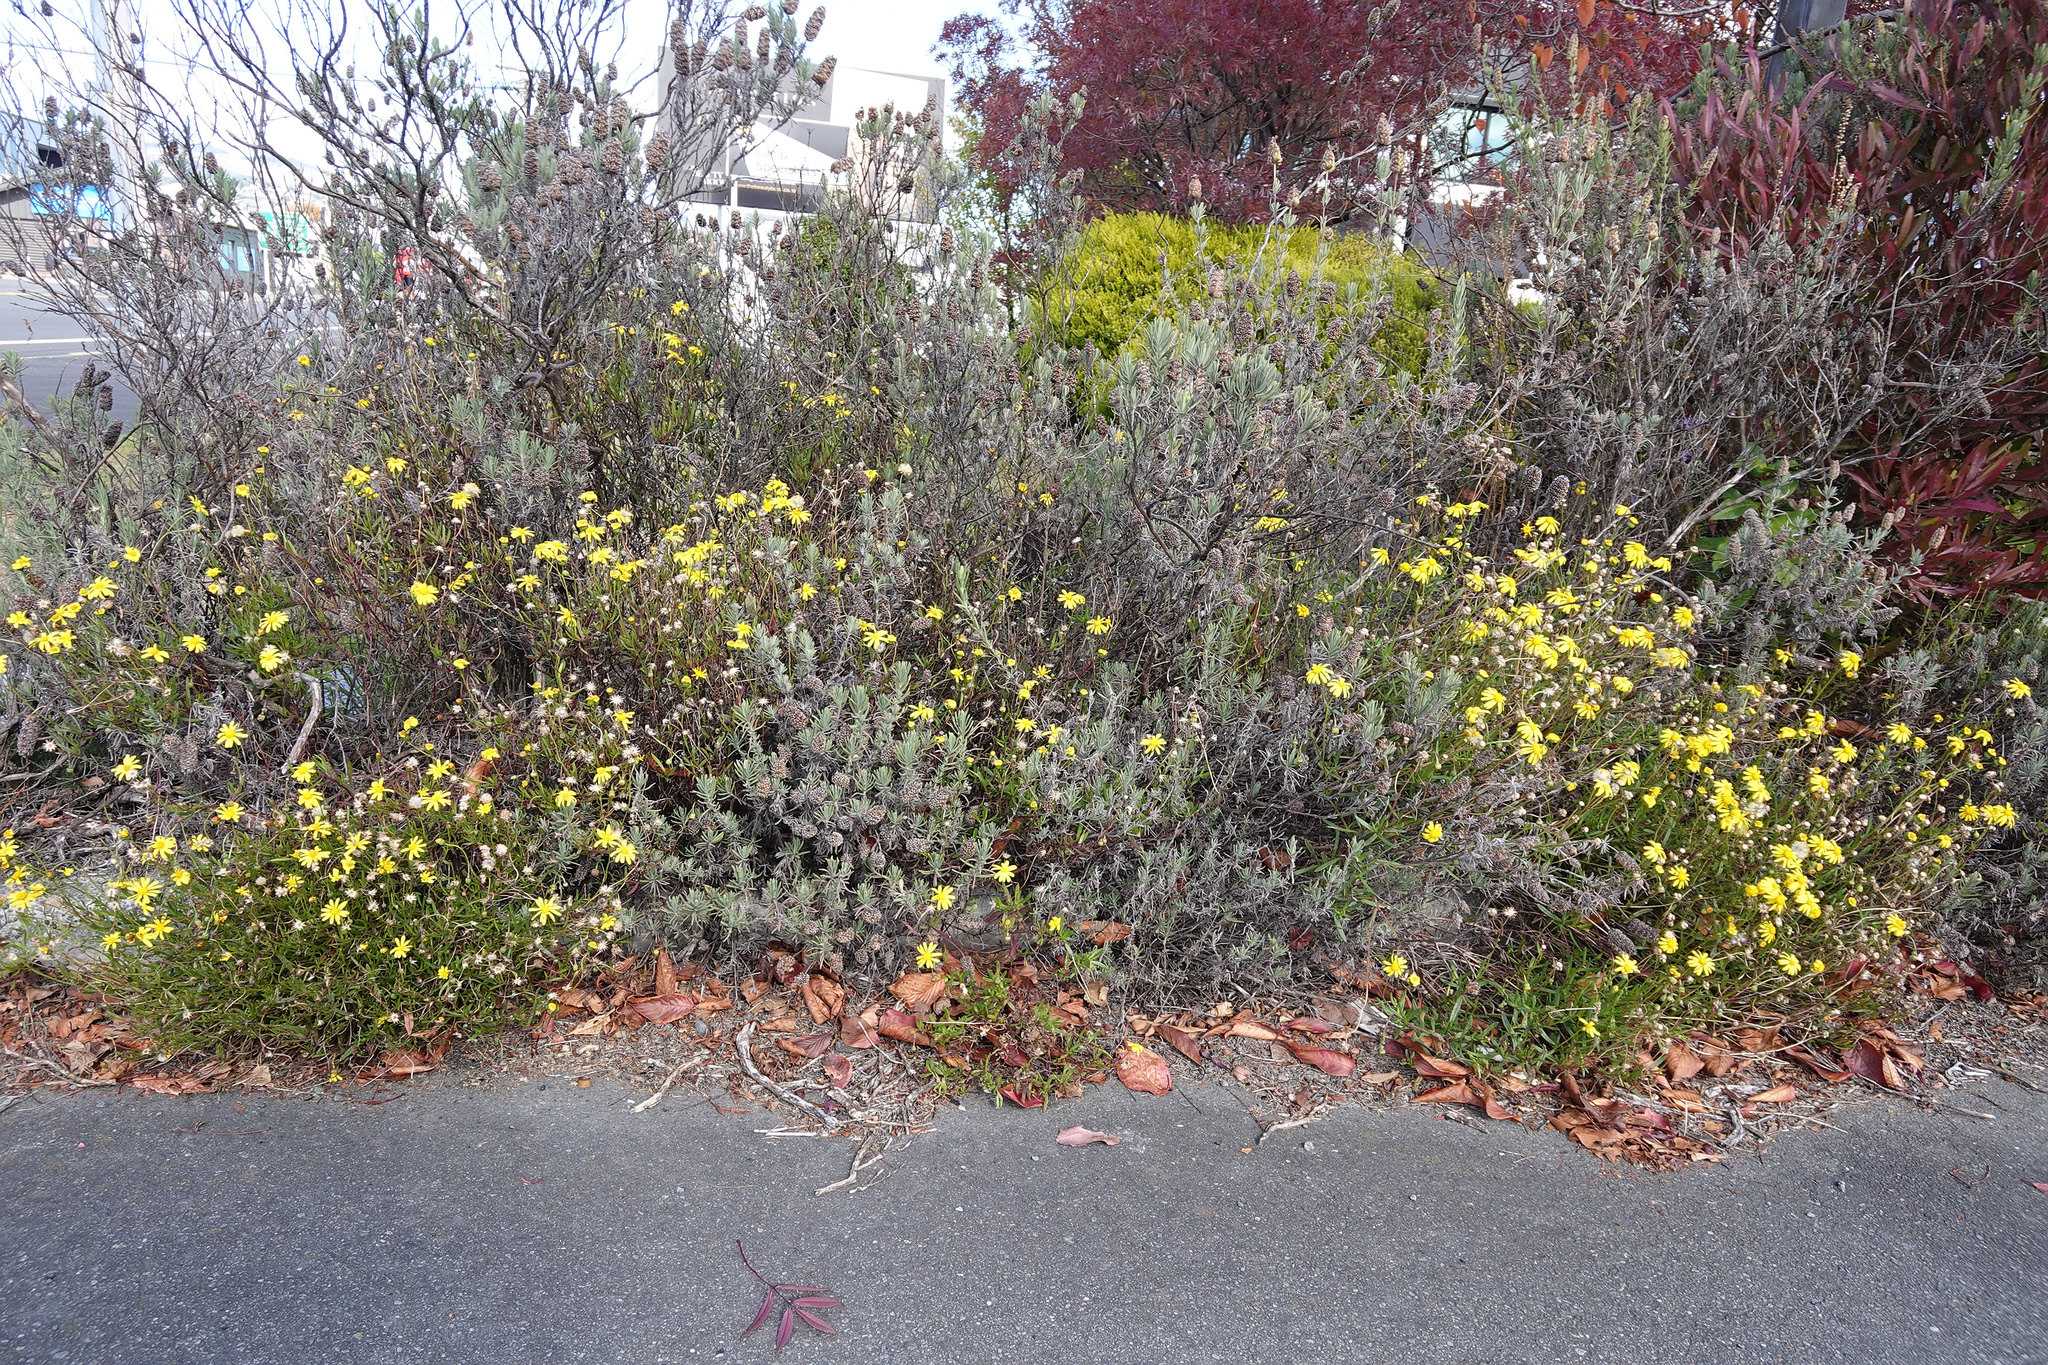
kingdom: Plantae
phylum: Tracheophyta
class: Magnoliopsida
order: Asterales
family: Asteraceae
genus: Senecio
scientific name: Senecio skirrhodon
